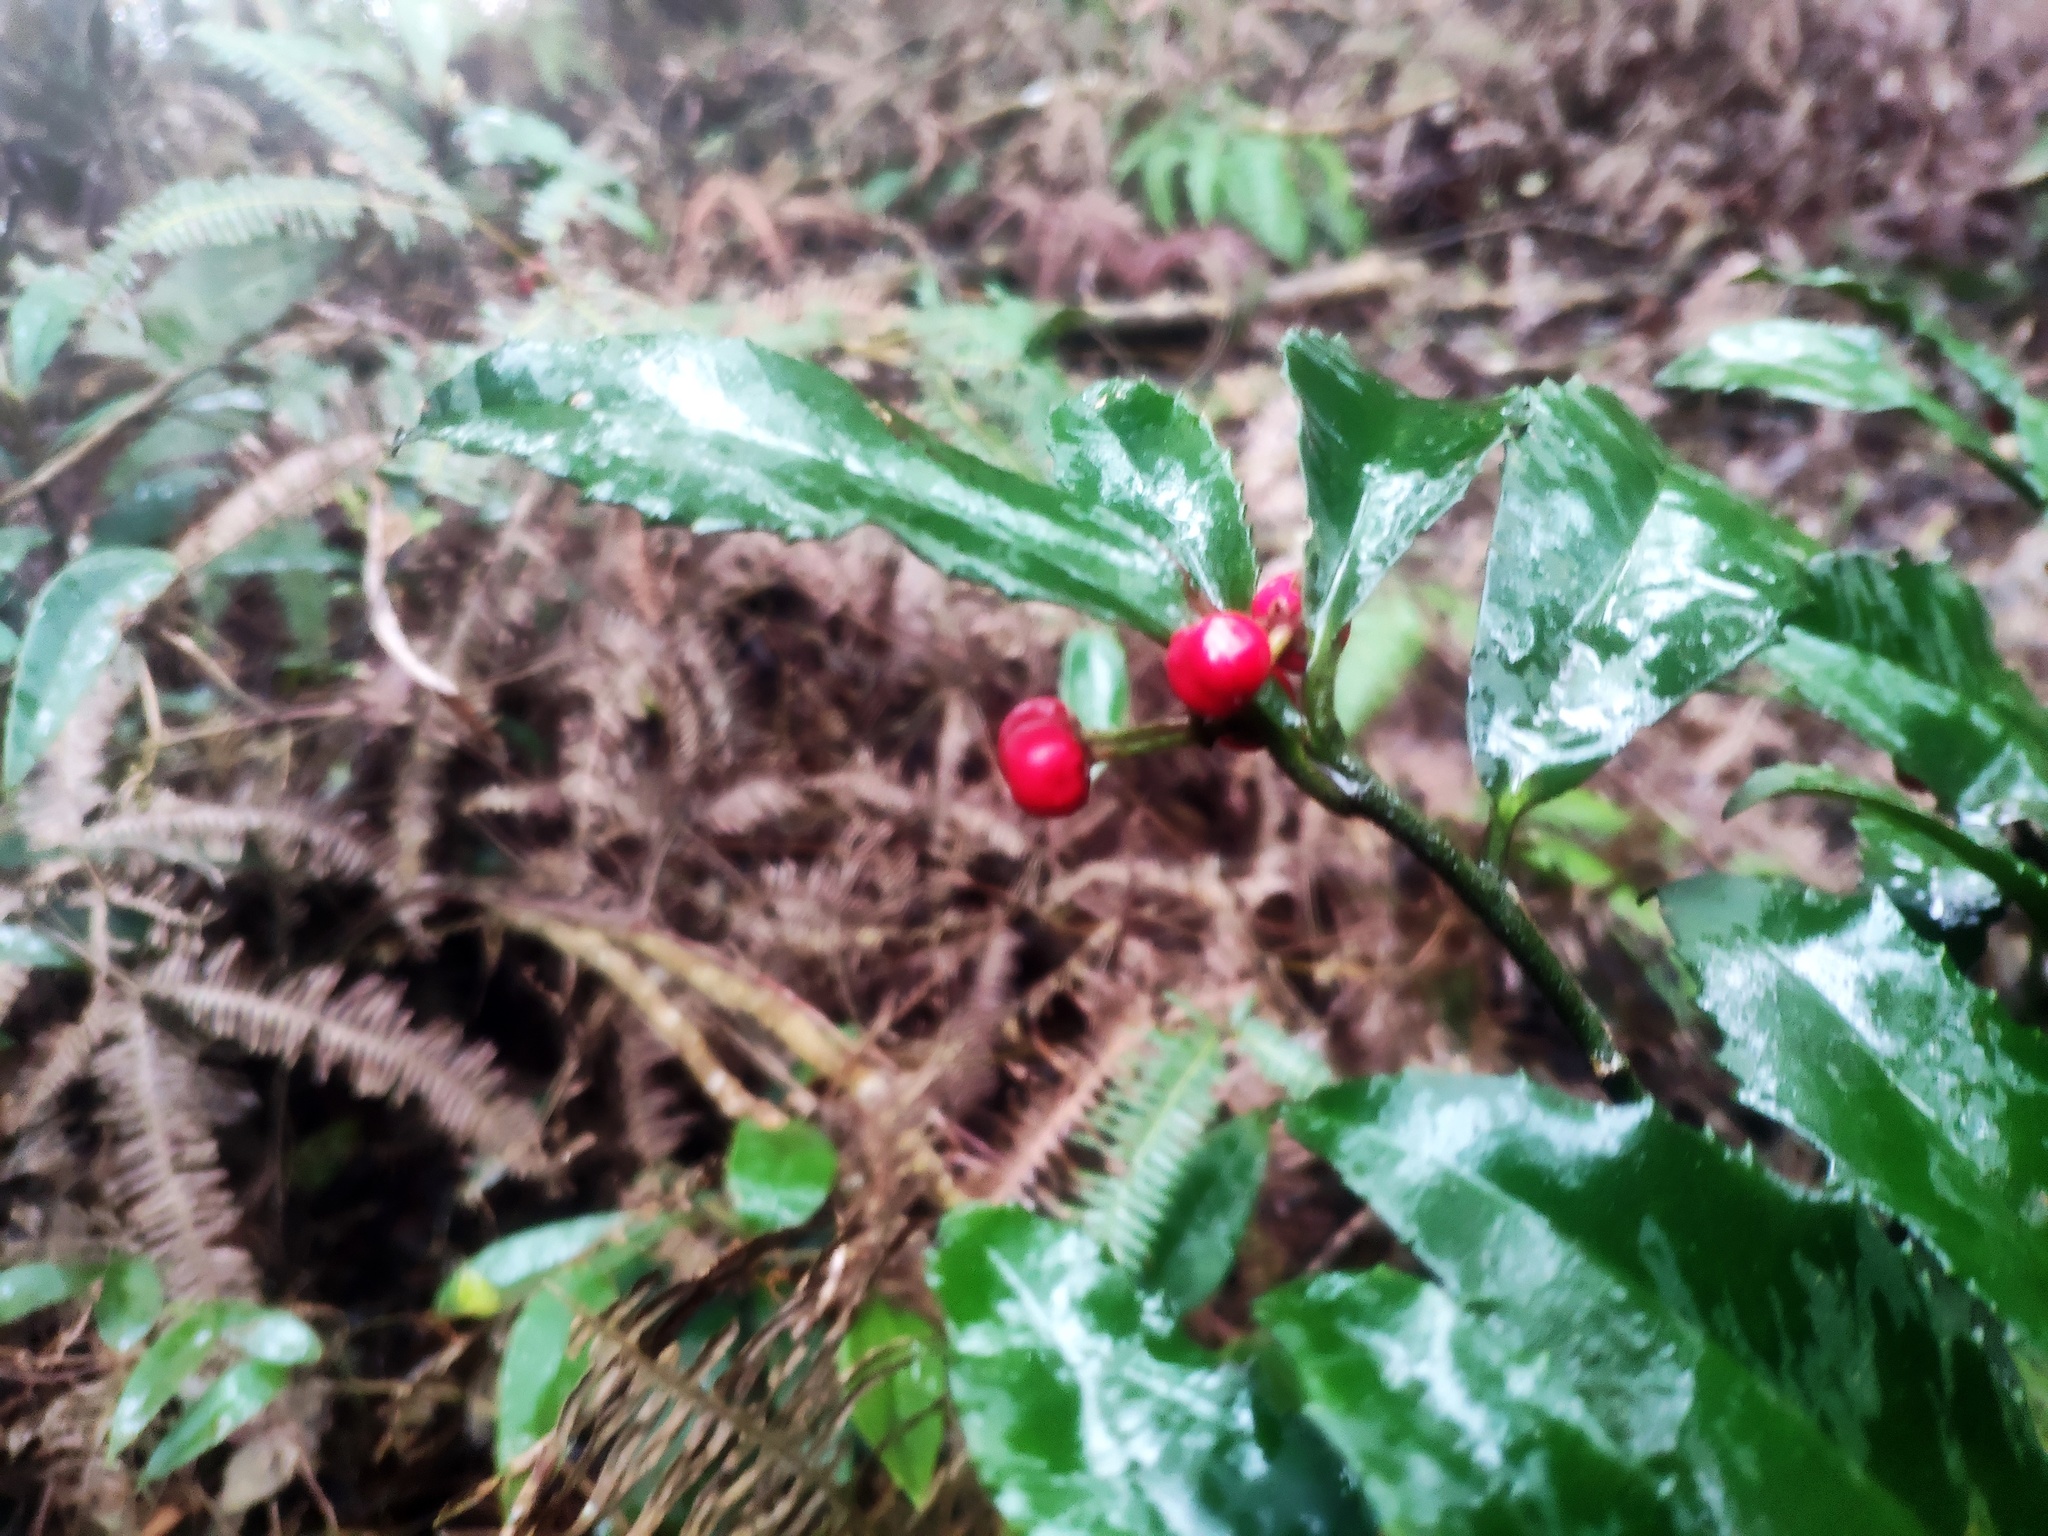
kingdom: Plantae
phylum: Tracheophyta
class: Magnoliopsida
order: Ericales
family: Primulaceae
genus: Ardisia
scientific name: Ardisia cornudentata
